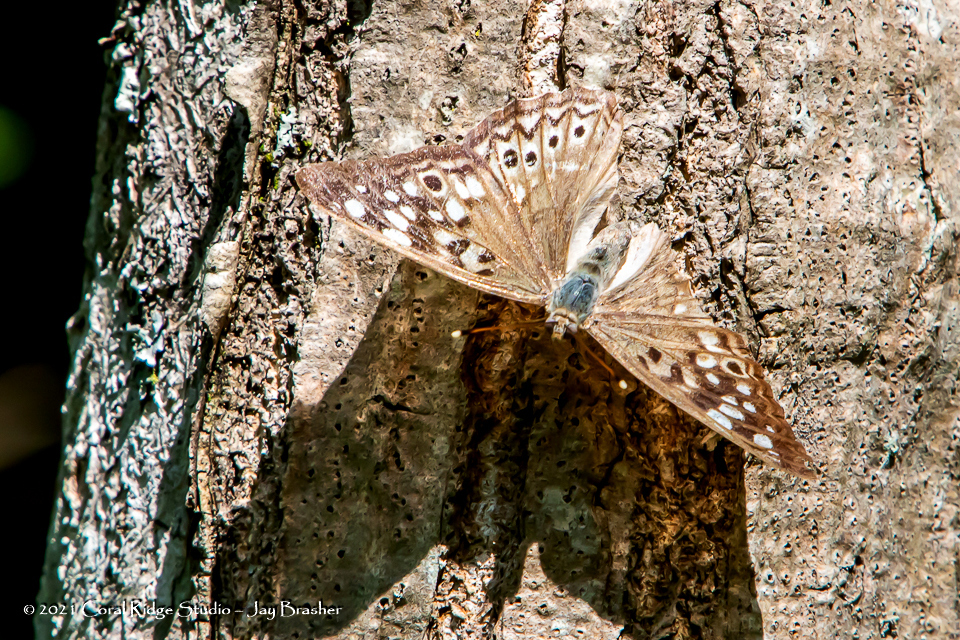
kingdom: Animalia
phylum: Arthropoda
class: Insecta
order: Lepidoptera
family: Nymphalidae
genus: Asterocampa
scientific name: Asterocampa celtis
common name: Hackberry emperor
